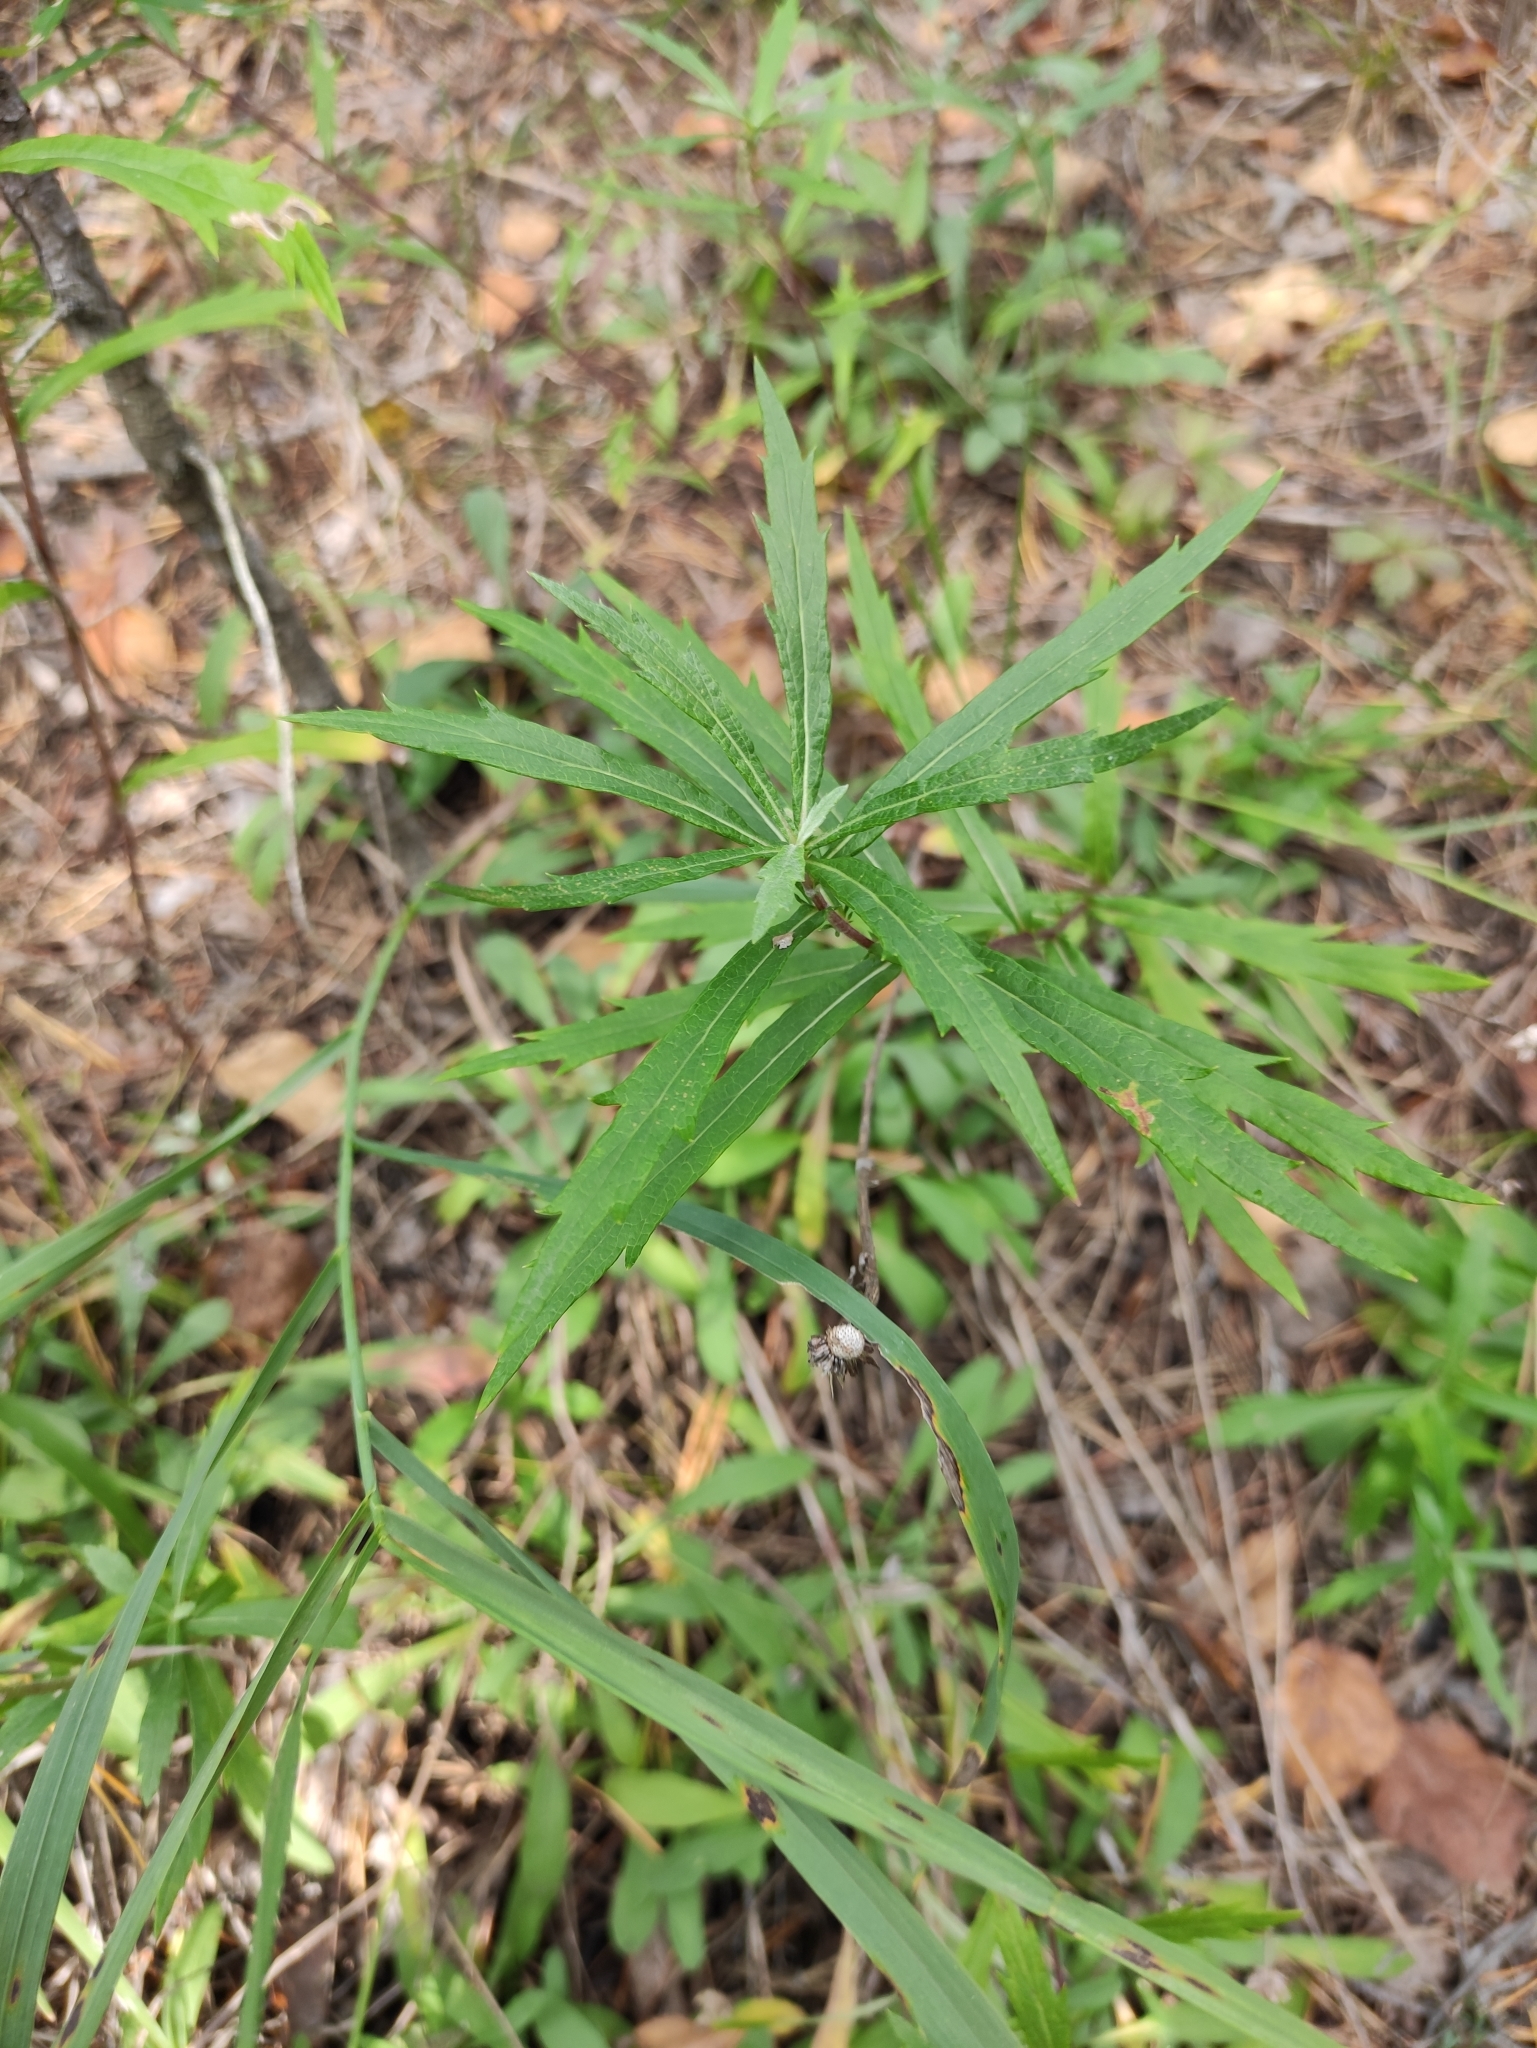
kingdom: Plantae
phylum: Tracheophyta
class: Magnoliopsida
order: Asterales
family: Asteraceae
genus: Artemisia
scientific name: Artemisia integrifolia
